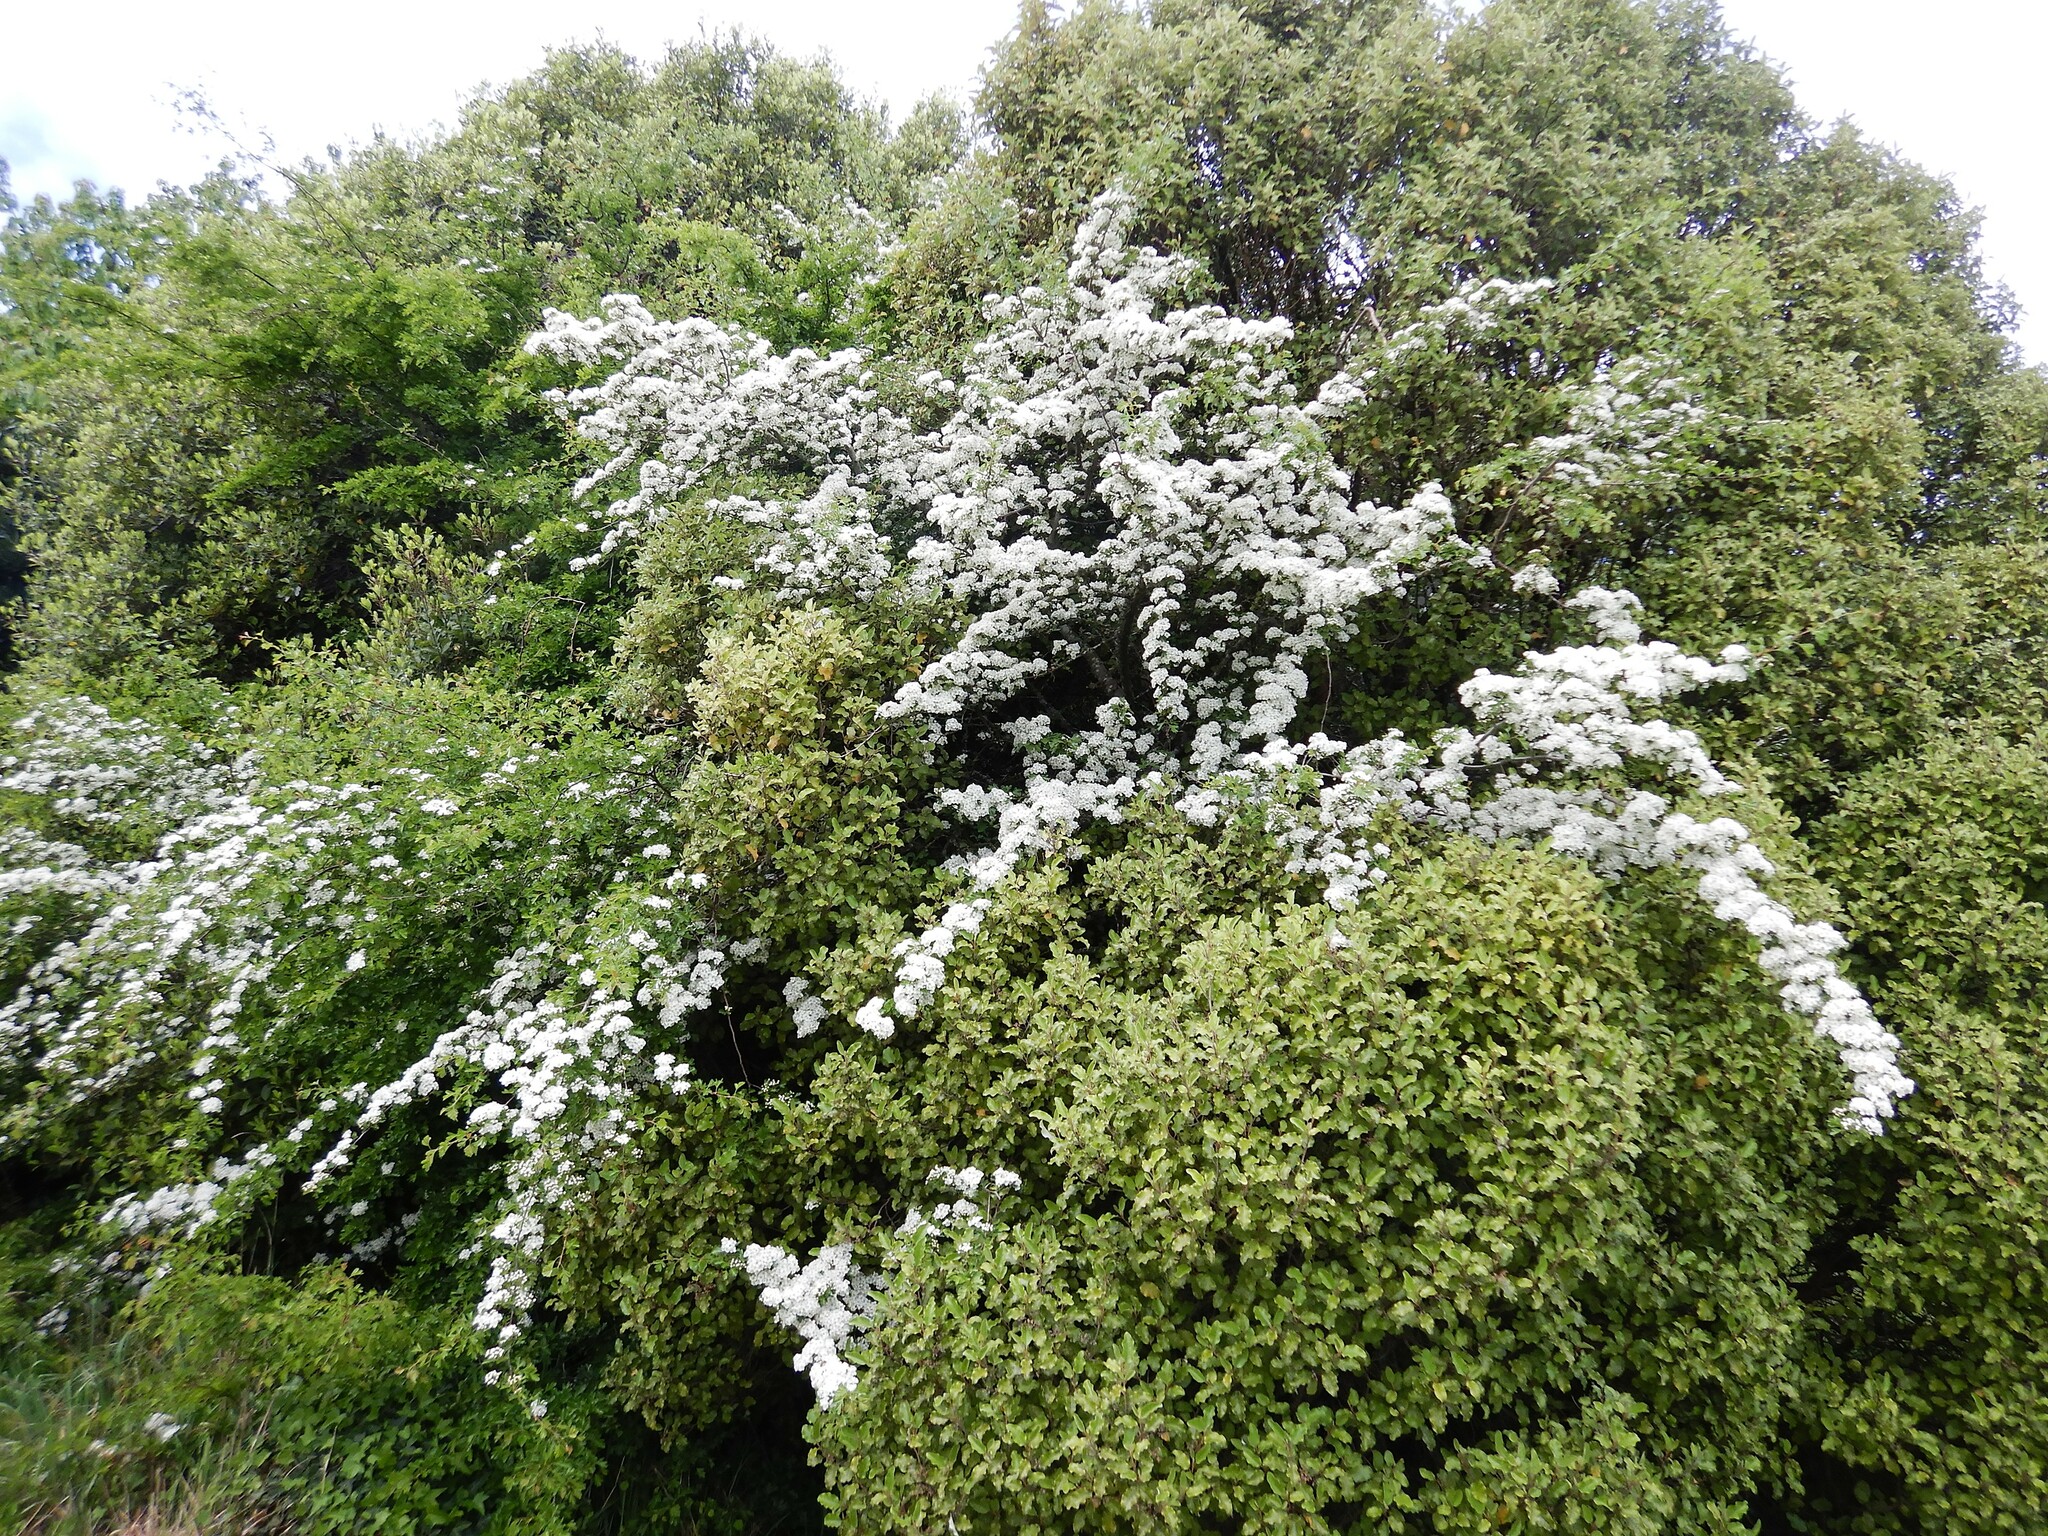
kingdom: Plantae
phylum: Tracheophyta
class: Magnoliopsida
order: Rosales
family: Rosaceae
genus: Crataegus
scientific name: Crataegus monogyna
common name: Hawthorn
